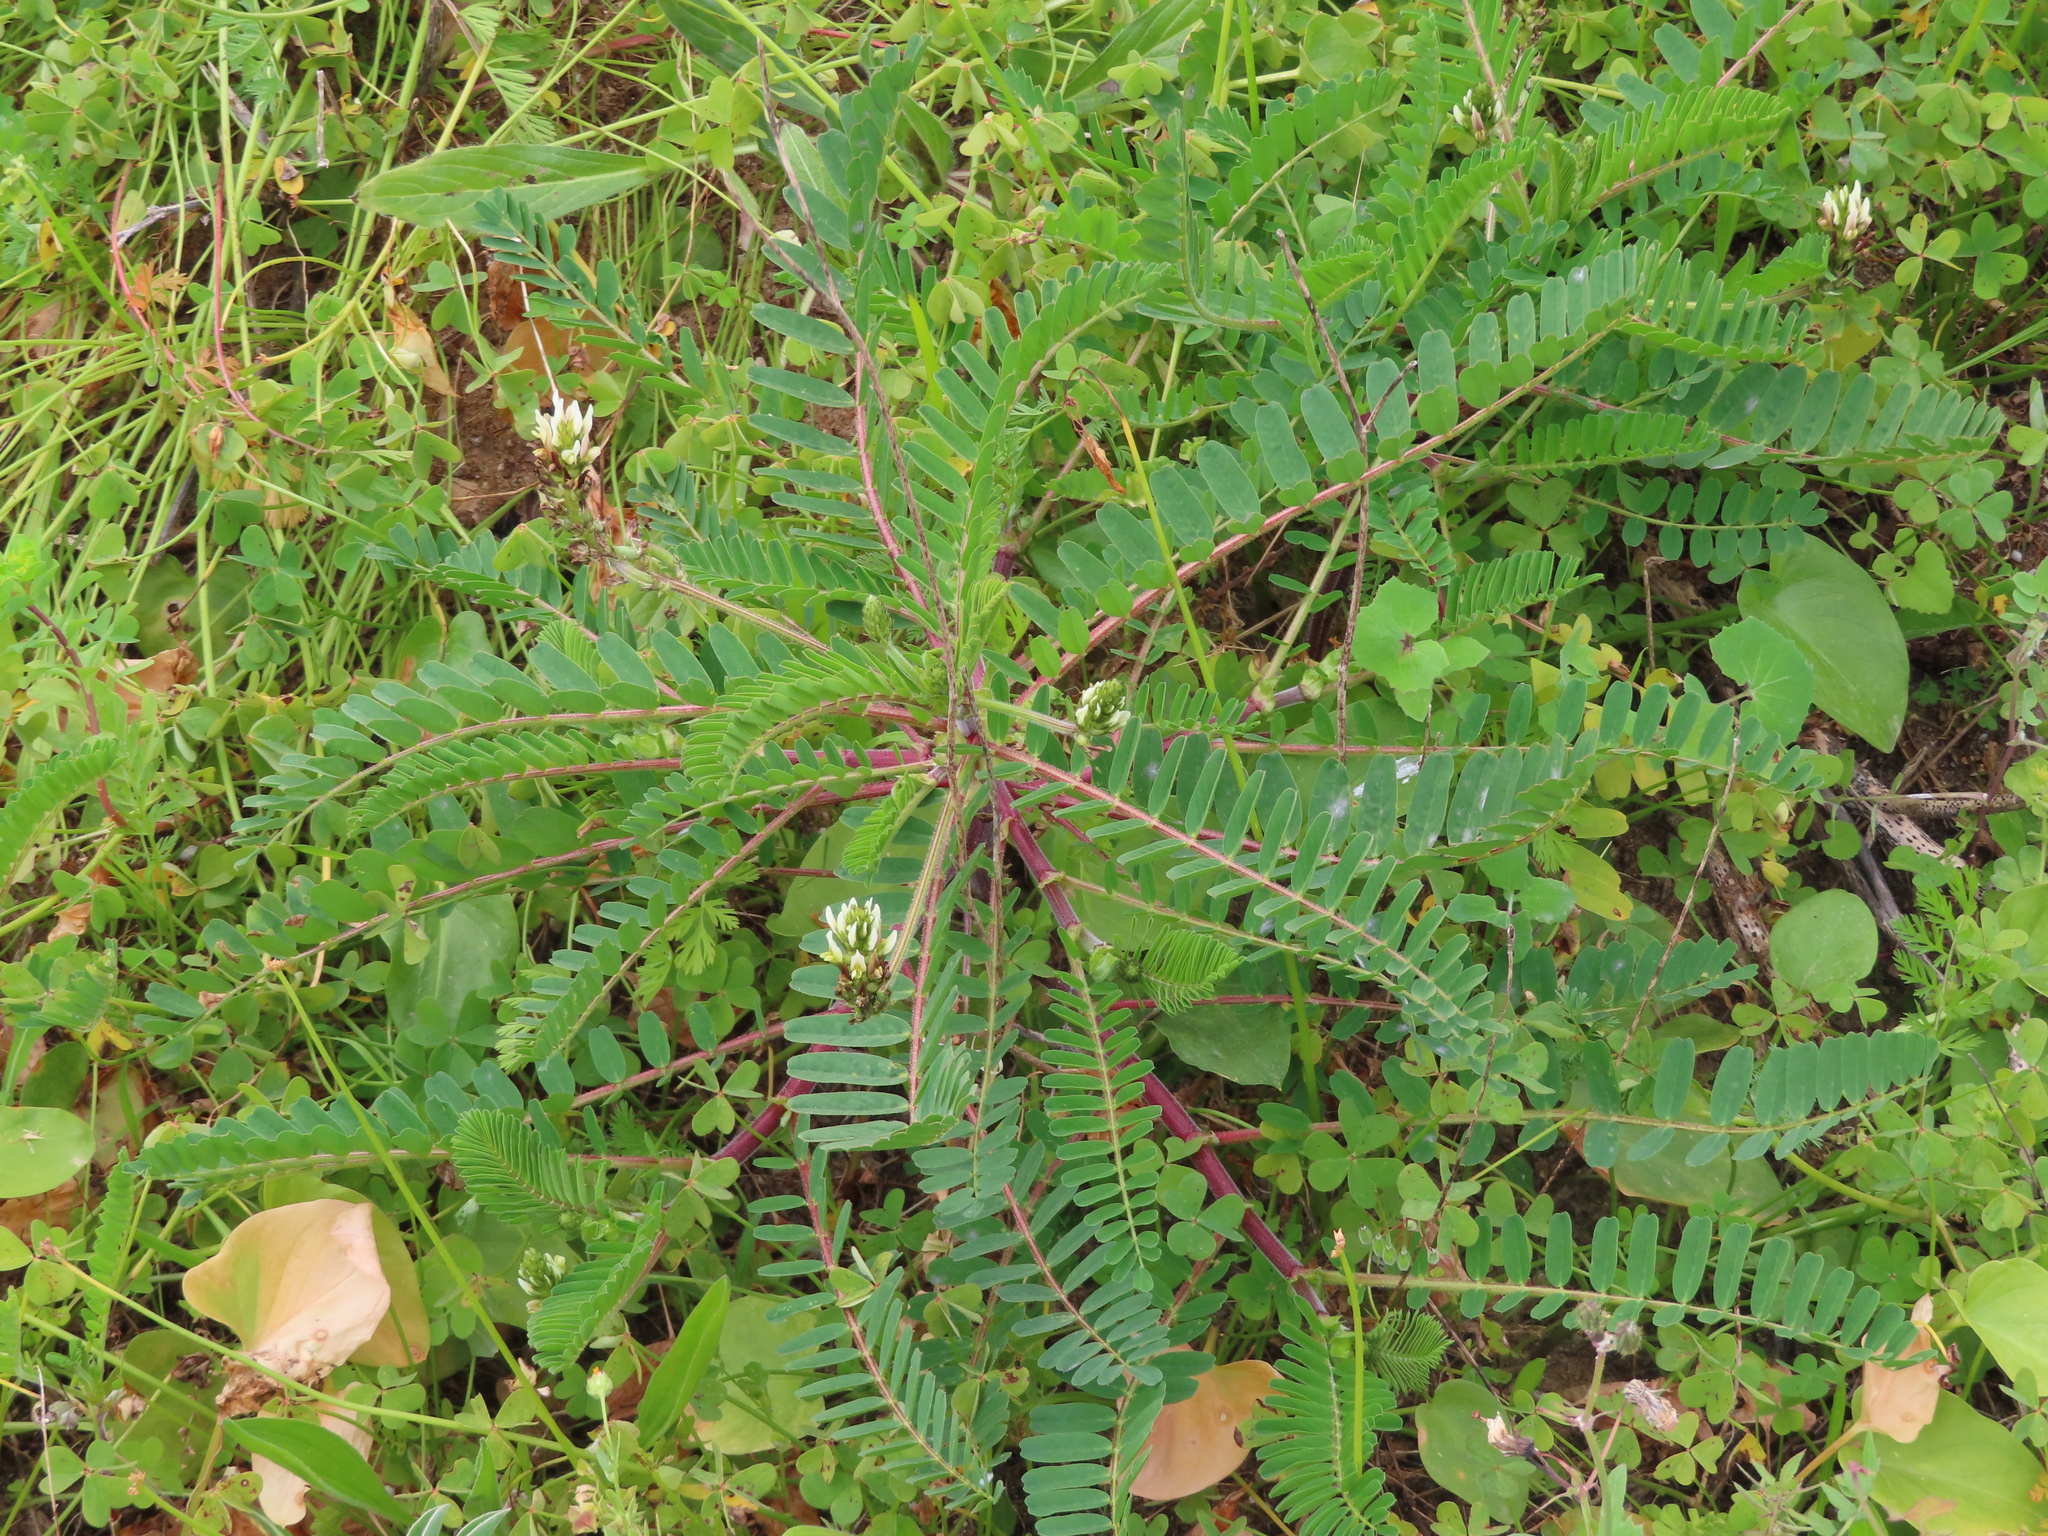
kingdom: Plantae
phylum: Tracheophyta
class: Magnoliopsida
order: Fabales
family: Fabaceae
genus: Astragalus
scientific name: Astragalus boeticus
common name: Milk-vetch
